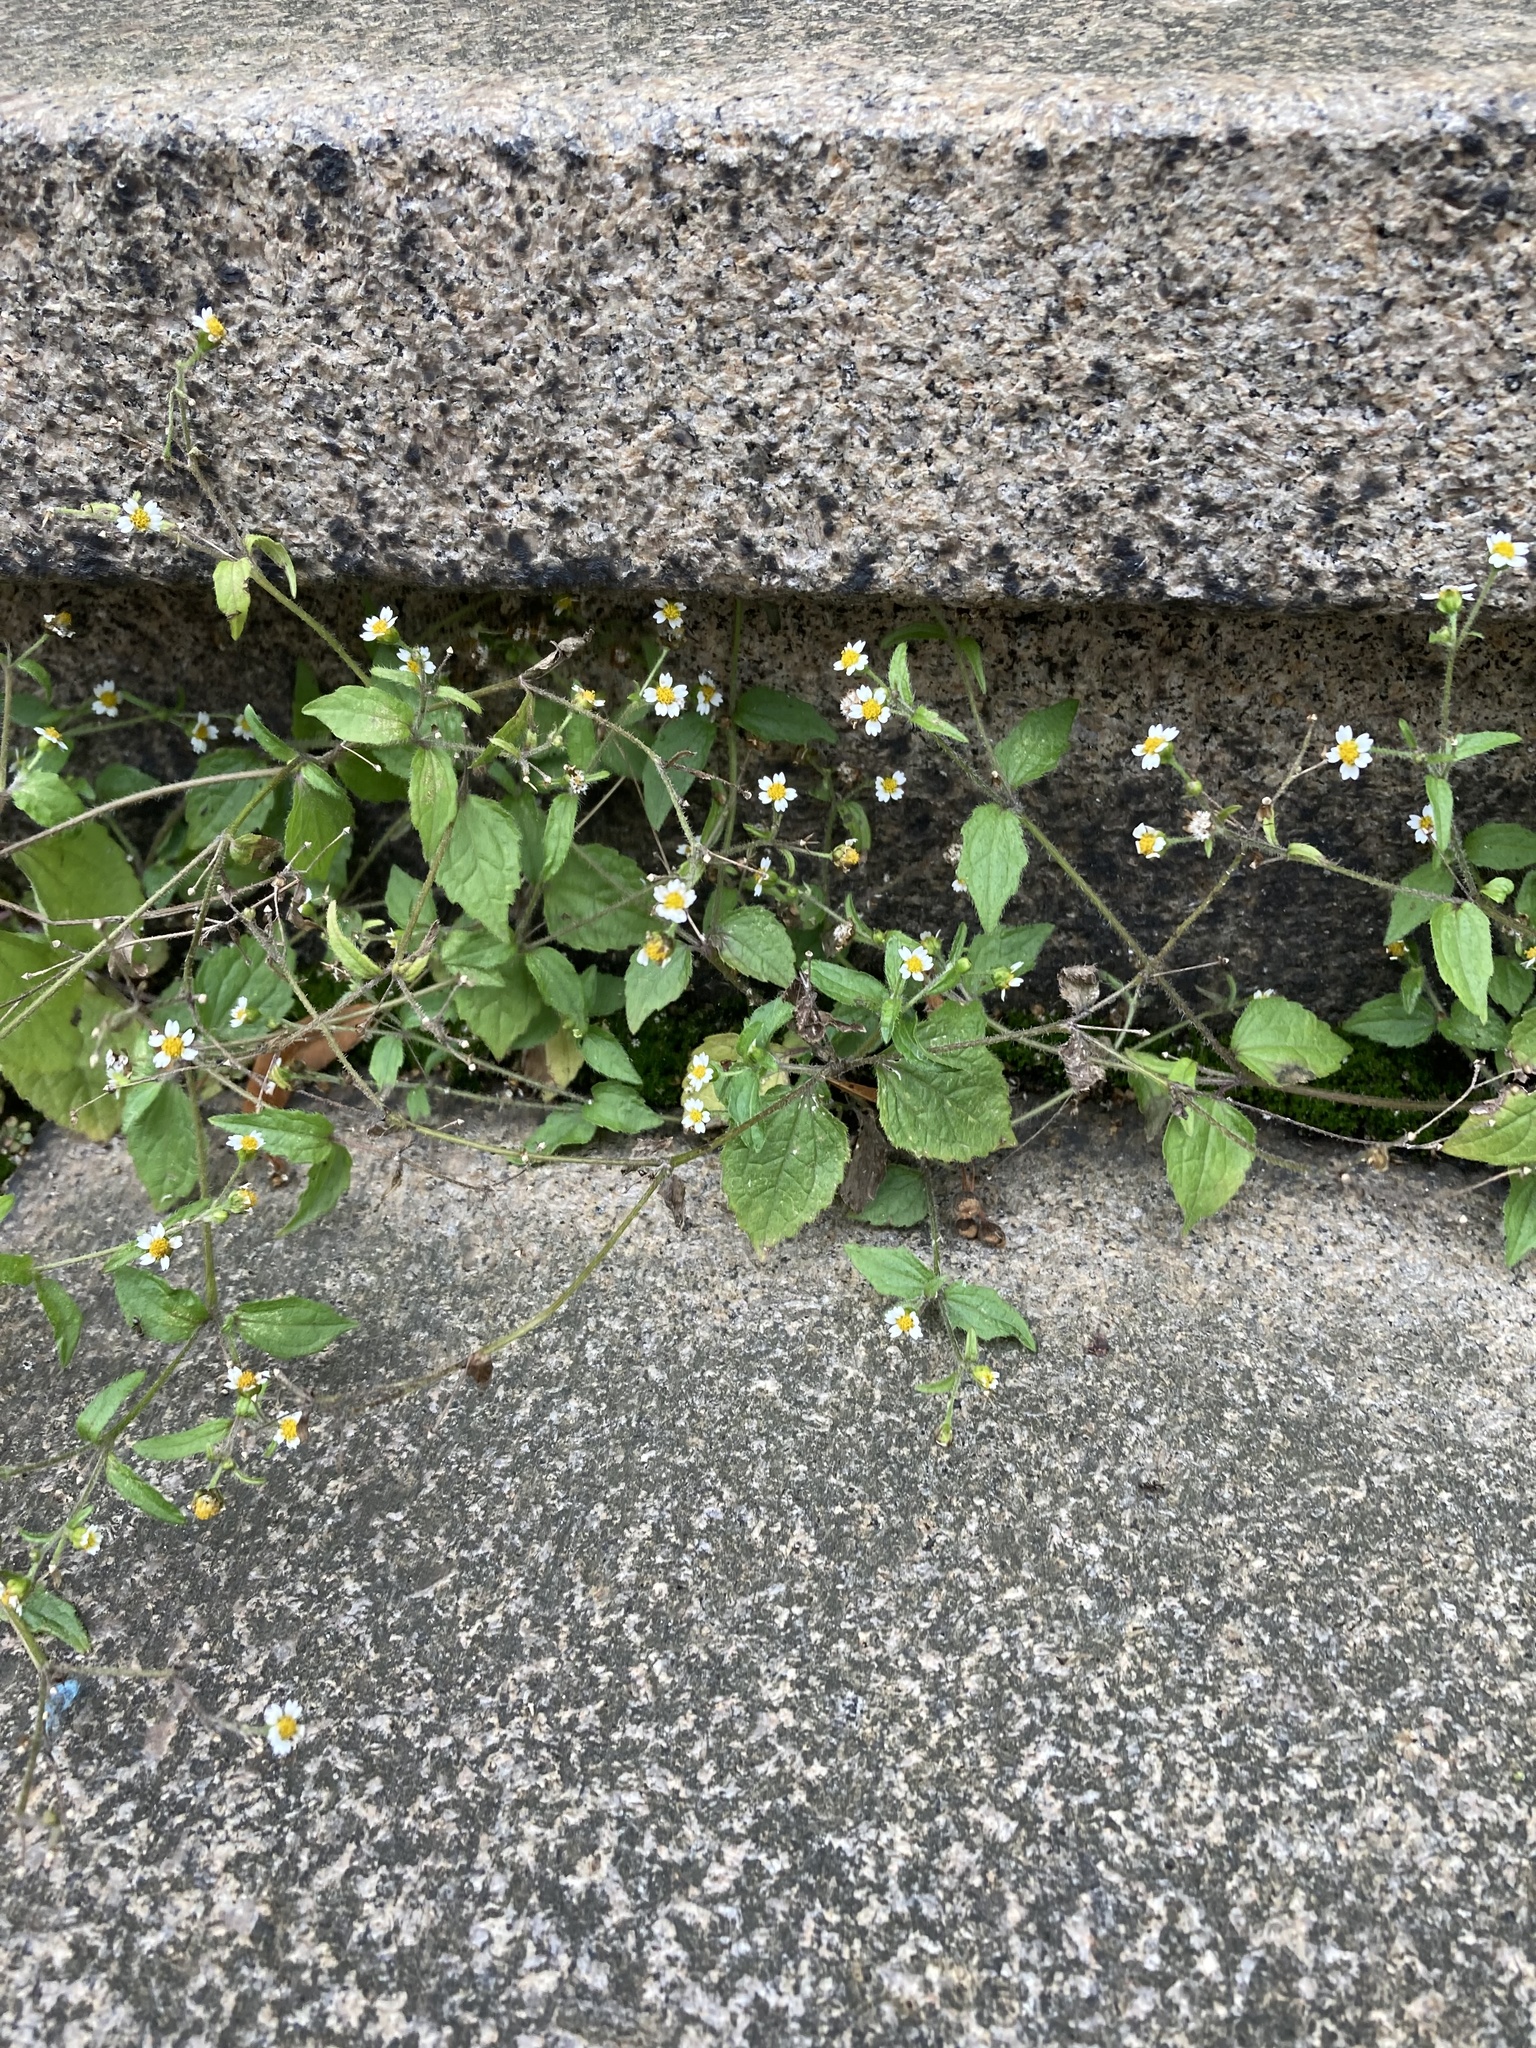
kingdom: Plantae
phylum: Tracheophyta
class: Magnoliopsida
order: Asterales
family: Asteraceae
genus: Galinsoga
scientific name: Galinsoga quadriradiata
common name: Shaggy soldier
